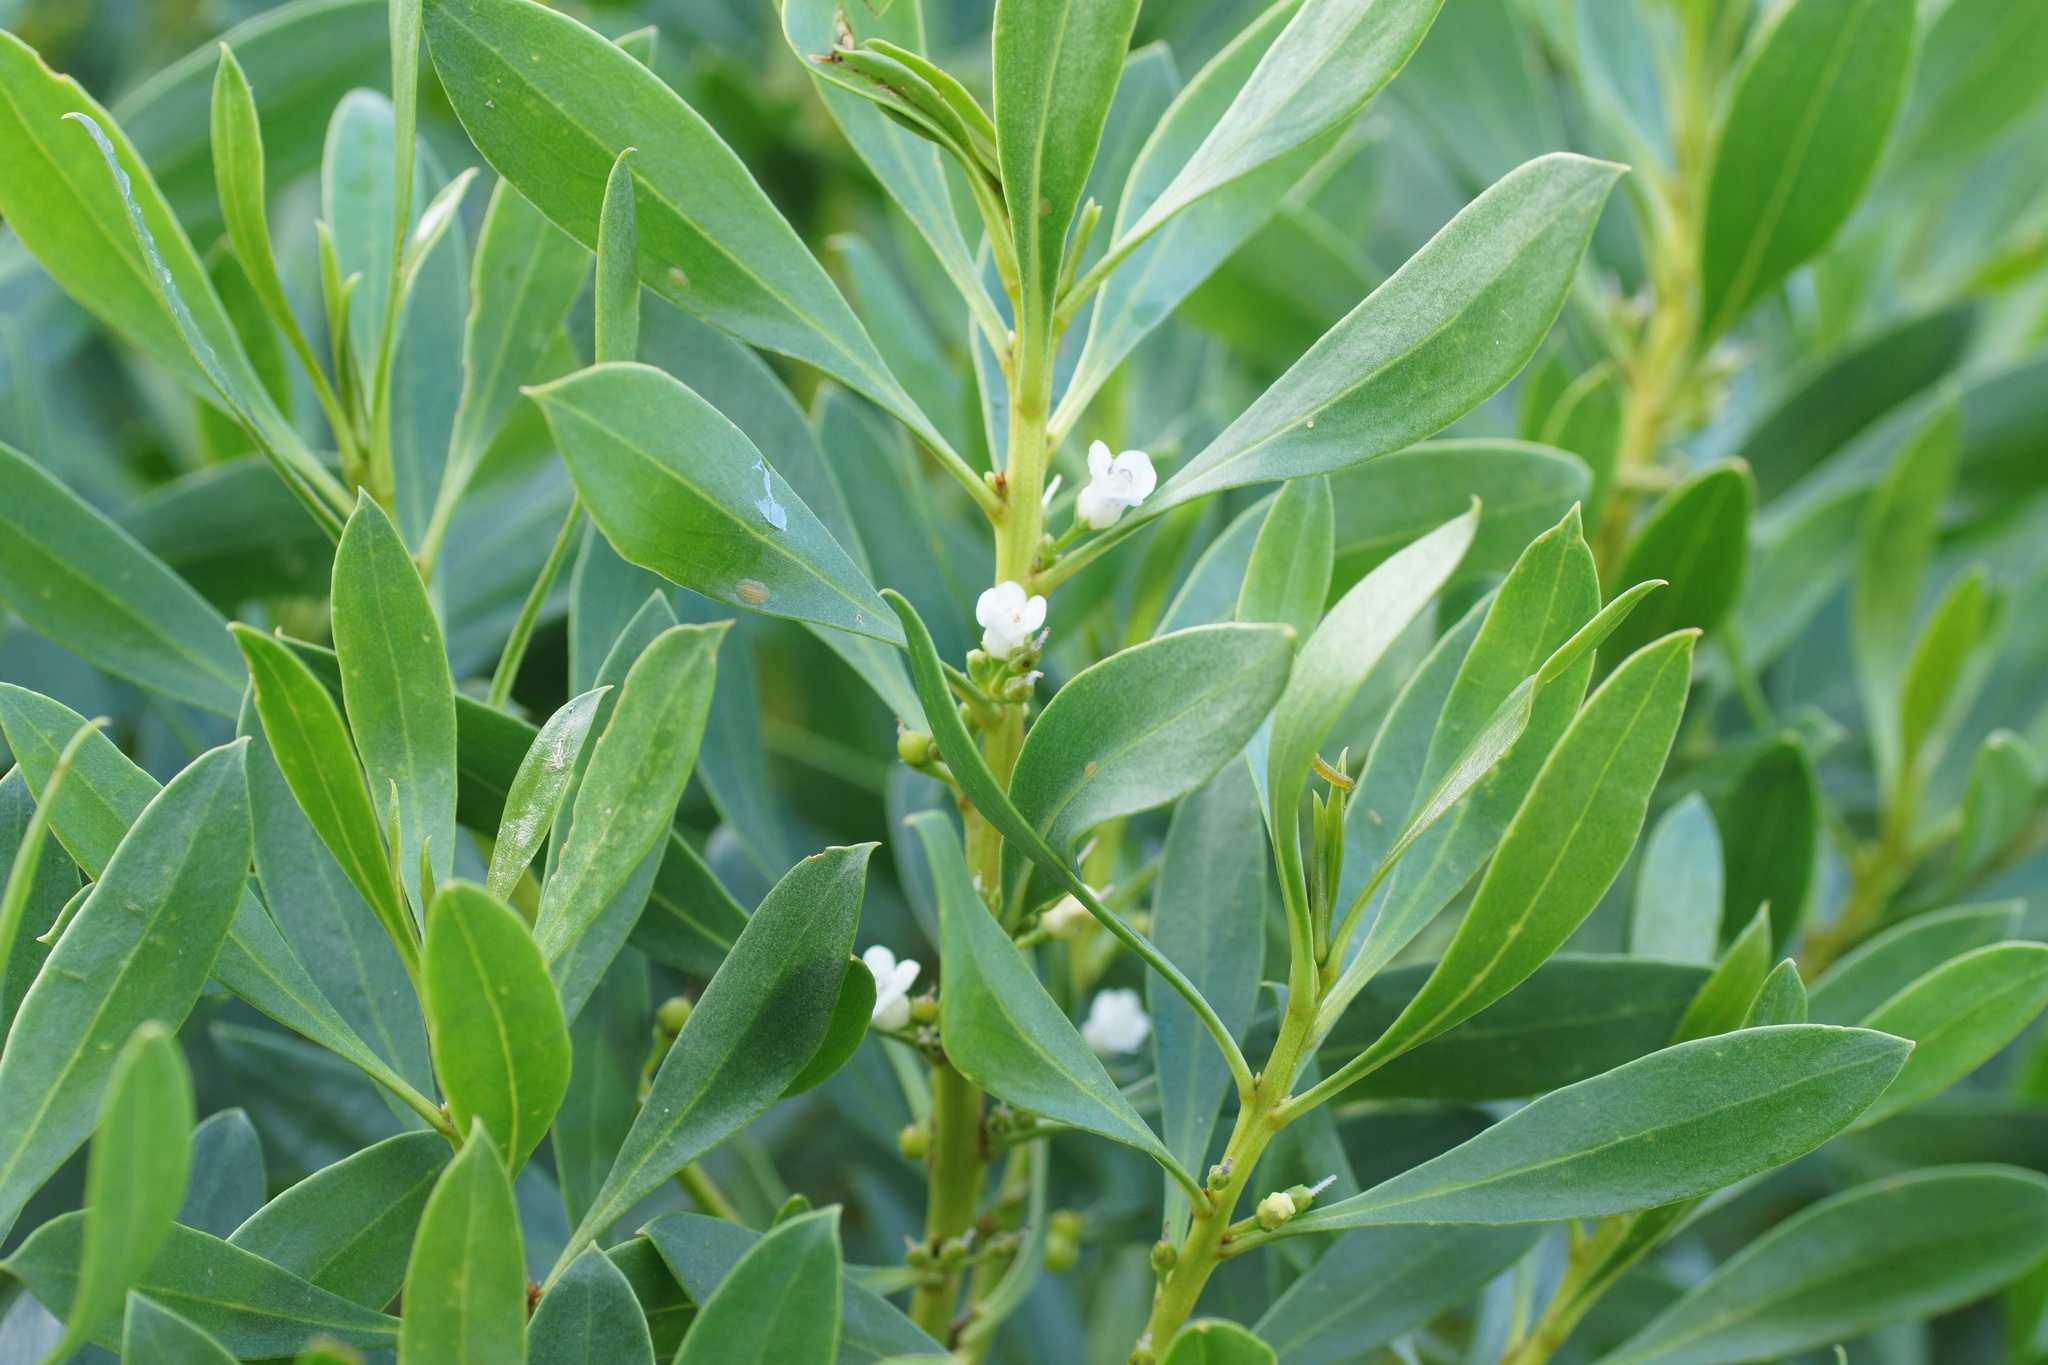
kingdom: Plantae
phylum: Tracheophyta
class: Magnoliopsida
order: Lamiales
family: Scrophulariaceae
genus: Myoporum
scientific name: Myoporum insulare
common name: Common boobialla
